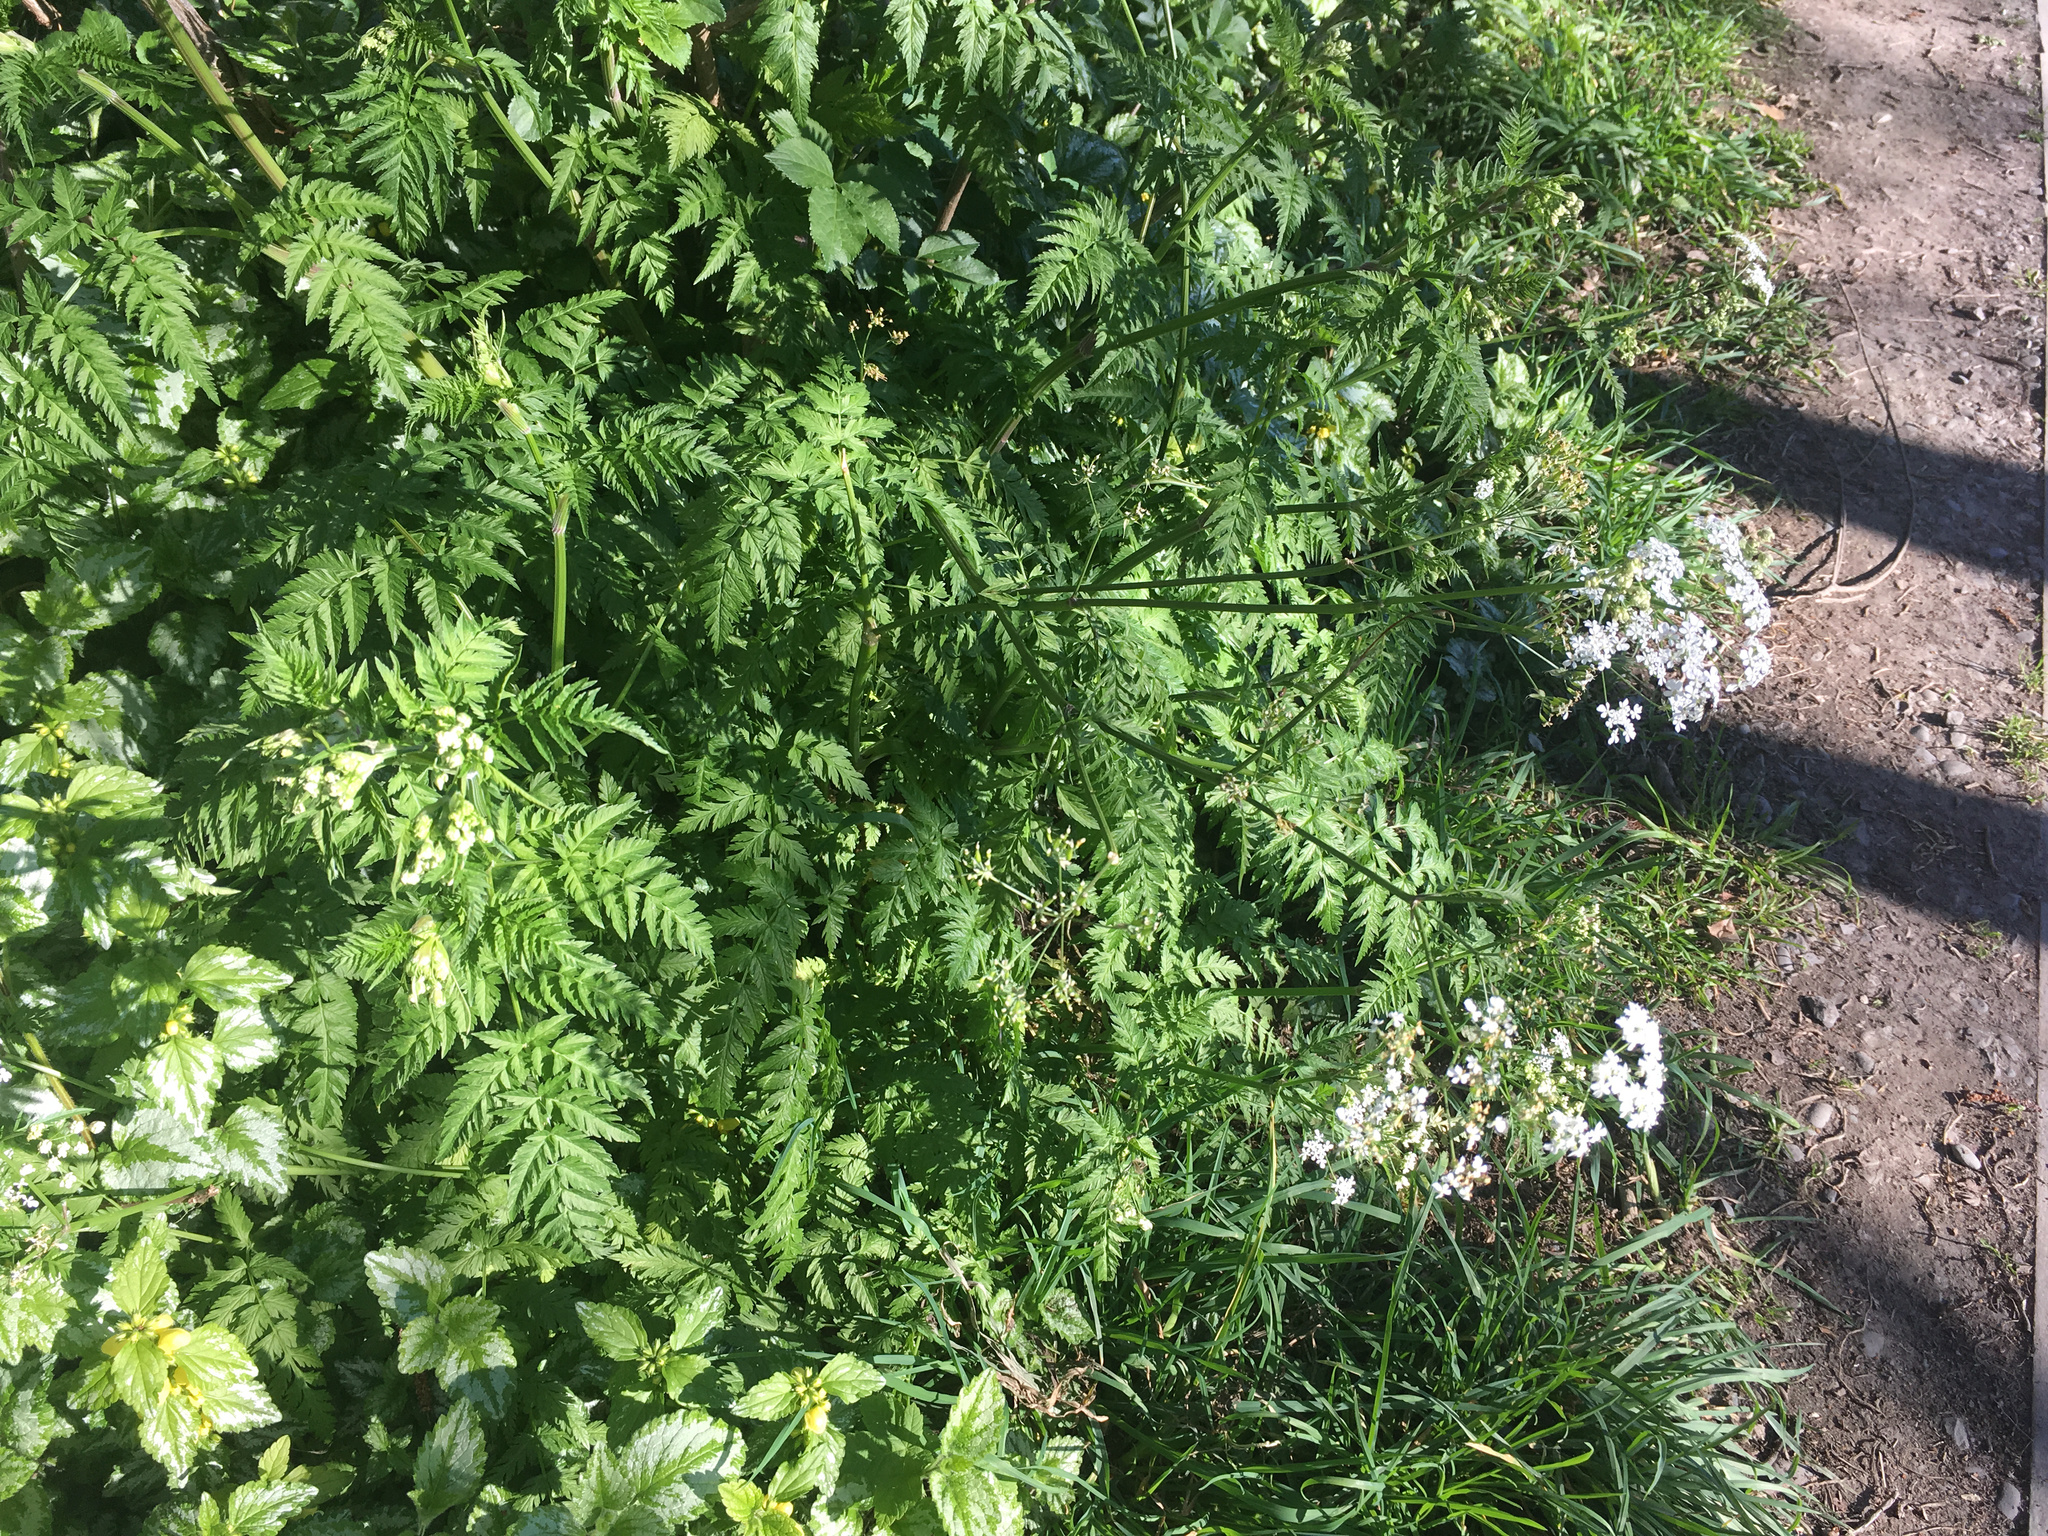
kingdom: Plantae
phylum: Tracheophyta
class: Magnoliopsida
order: Apiales
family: Apiaceae
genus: Anthriscus
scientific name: Anthriscus sylvestris
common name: Cow parsley
